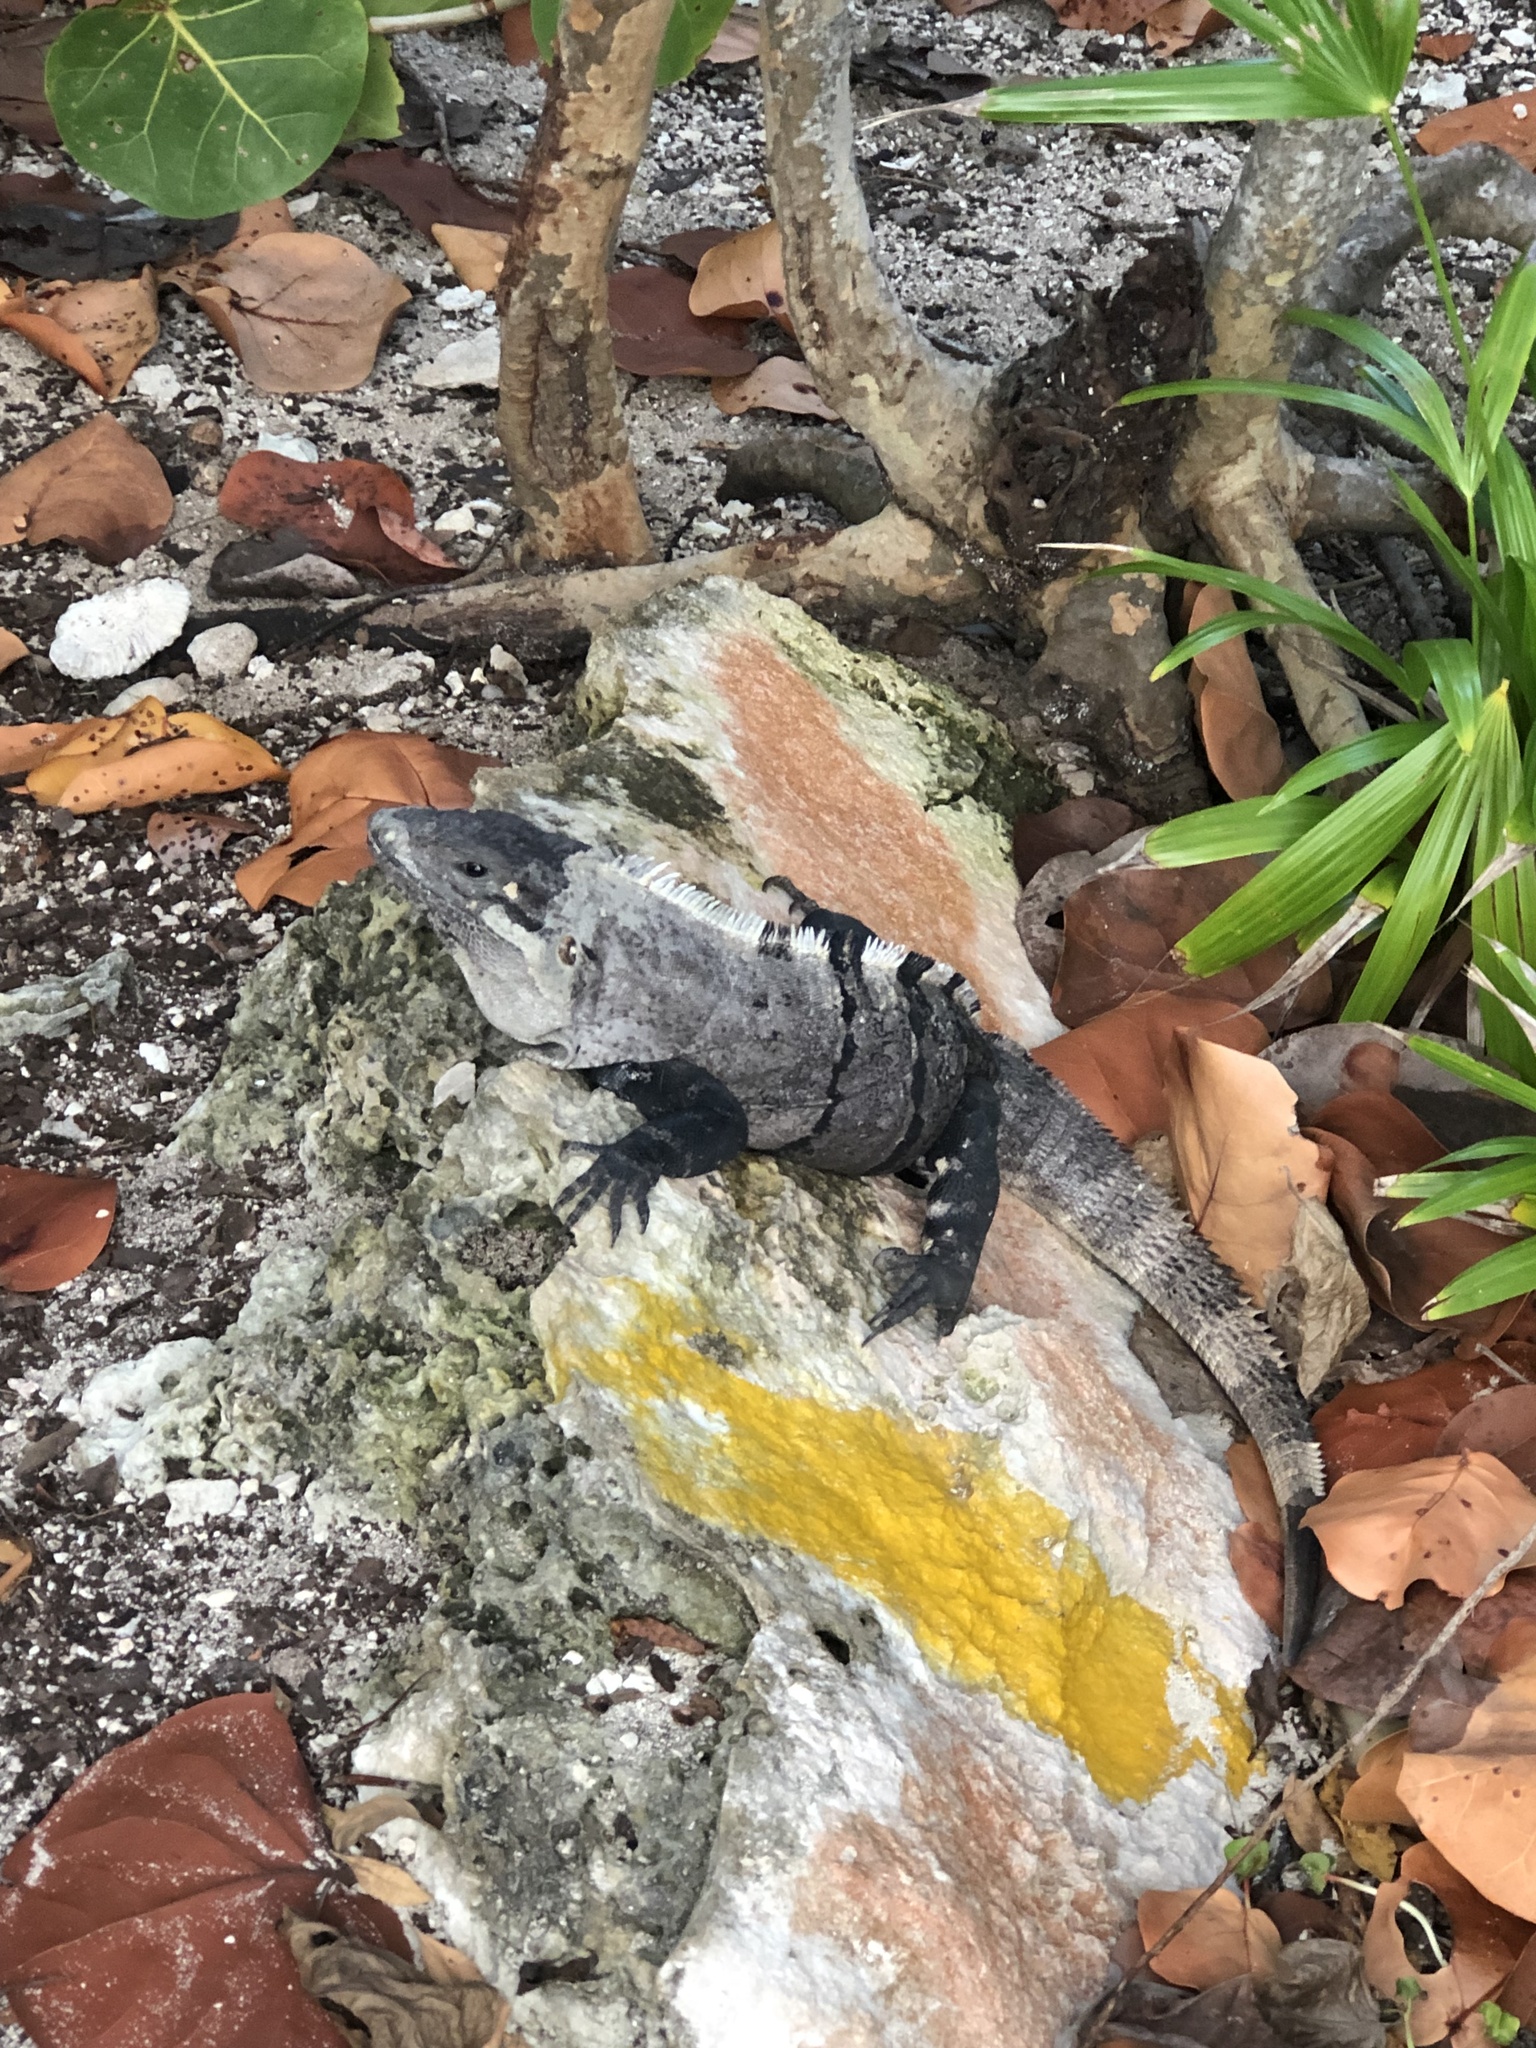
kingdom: Animalia
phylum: Chordata
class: Squamata
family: Iguanidae
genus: Ctenosaura
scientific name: Ctenosaura similis
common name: Black spiny-tailed iguana
